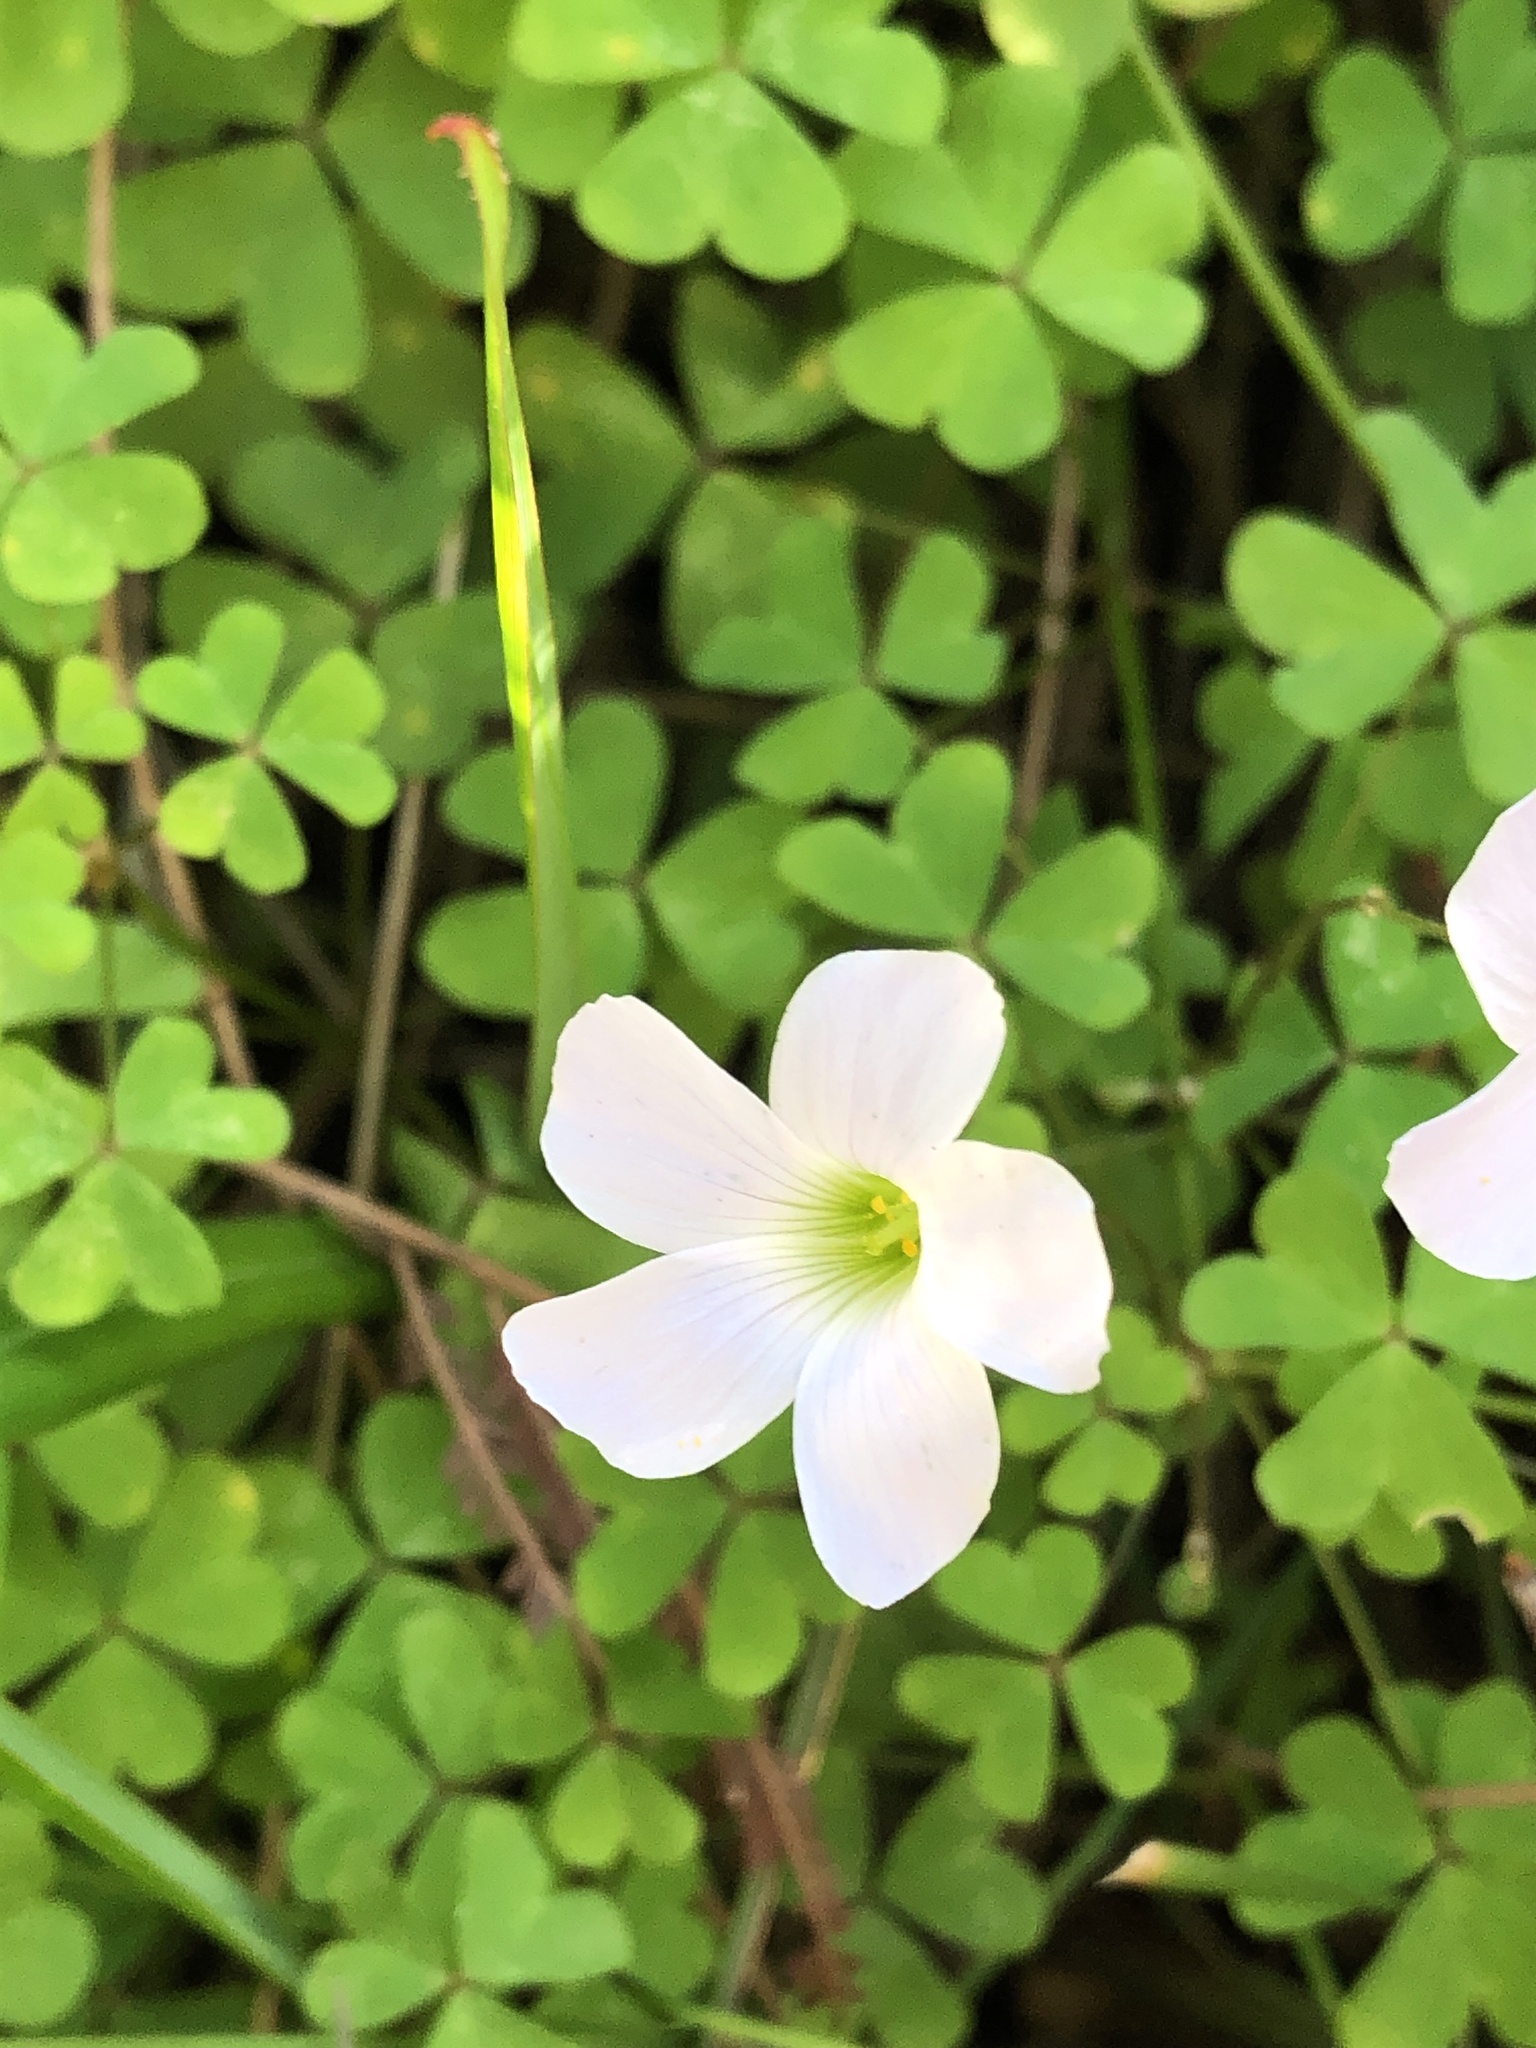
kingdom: Plantae
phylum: Tracheophyta
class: Magnoliopsida
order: Oxalidales
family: Oxalidaceae
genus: Oxalis
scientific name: Oxalis incarnata
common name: Pale pink-sorrel
